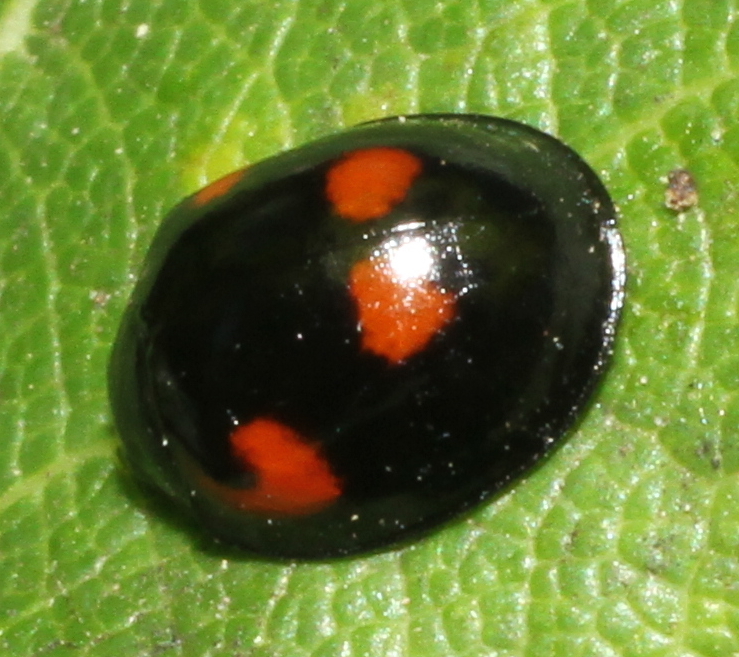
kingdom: Animalia
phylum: Arthropoda
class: Insecta
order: Coleoptera
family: Coccinellidae
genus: Brumus
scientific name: Brumus quadripustulatus
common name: Ladybird beetle
